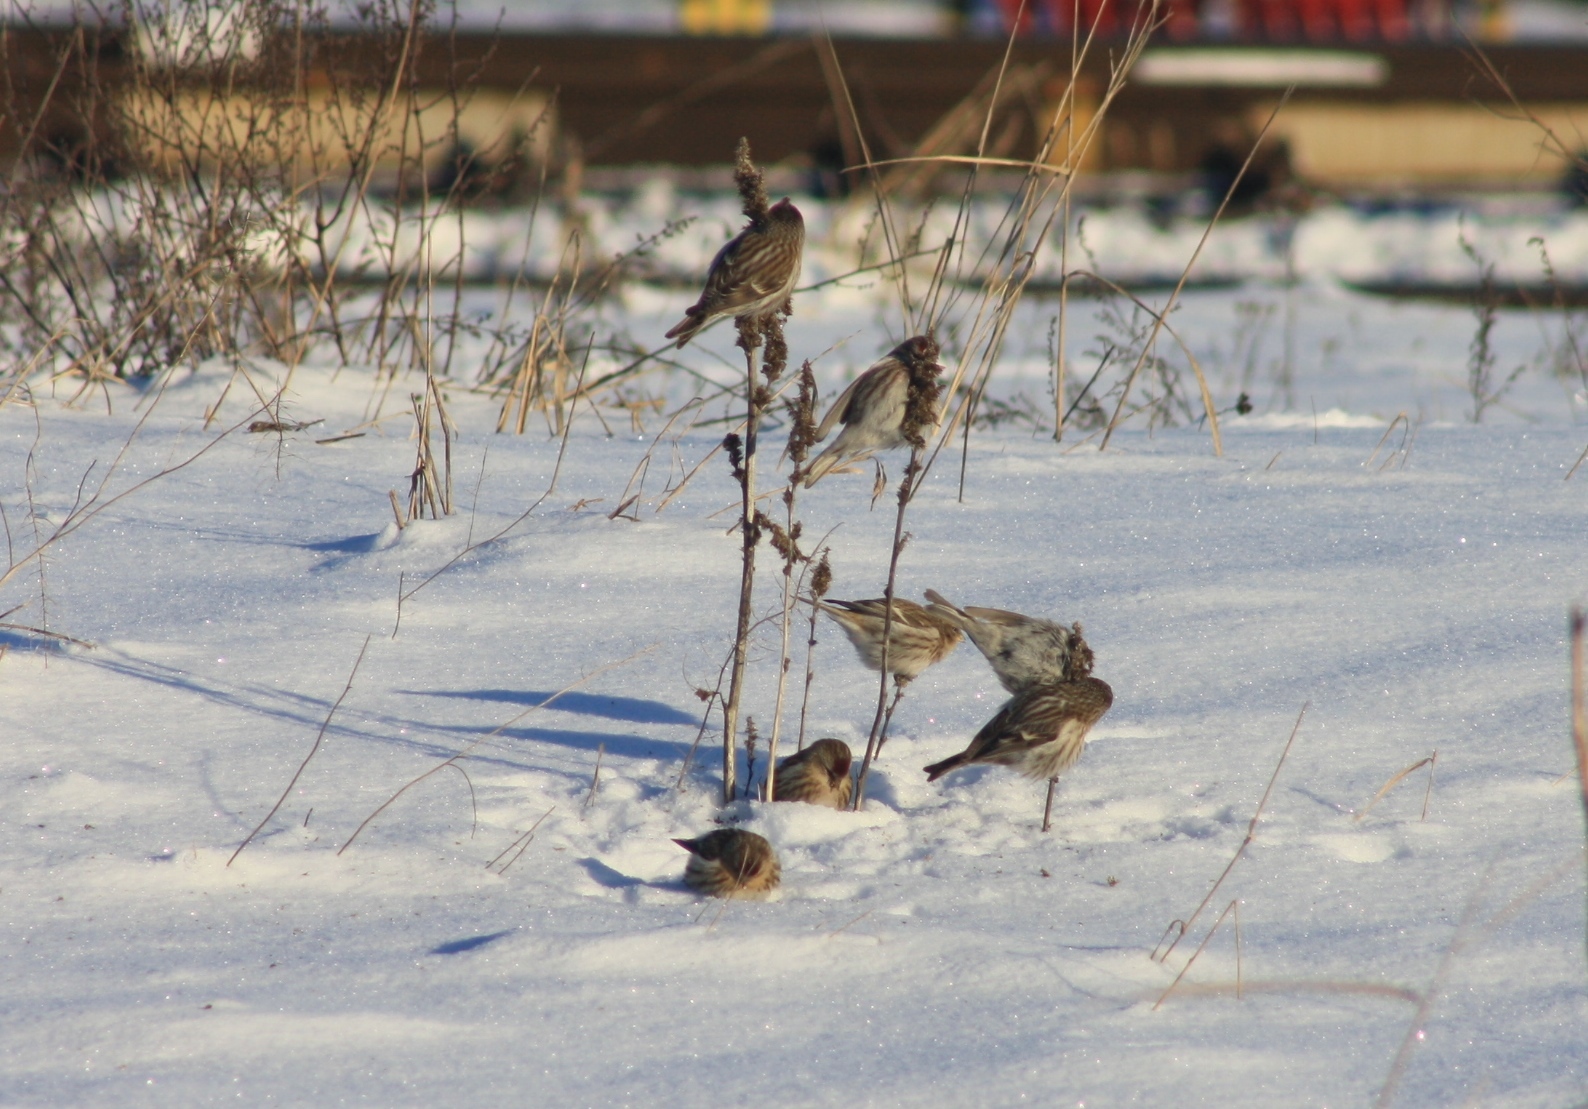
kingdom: Animalia
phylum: Chordata
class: Aves
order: Passeriformes
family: Fringillidae
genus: Acanthis
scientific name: Acanthis flammea
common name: Common redpoll
